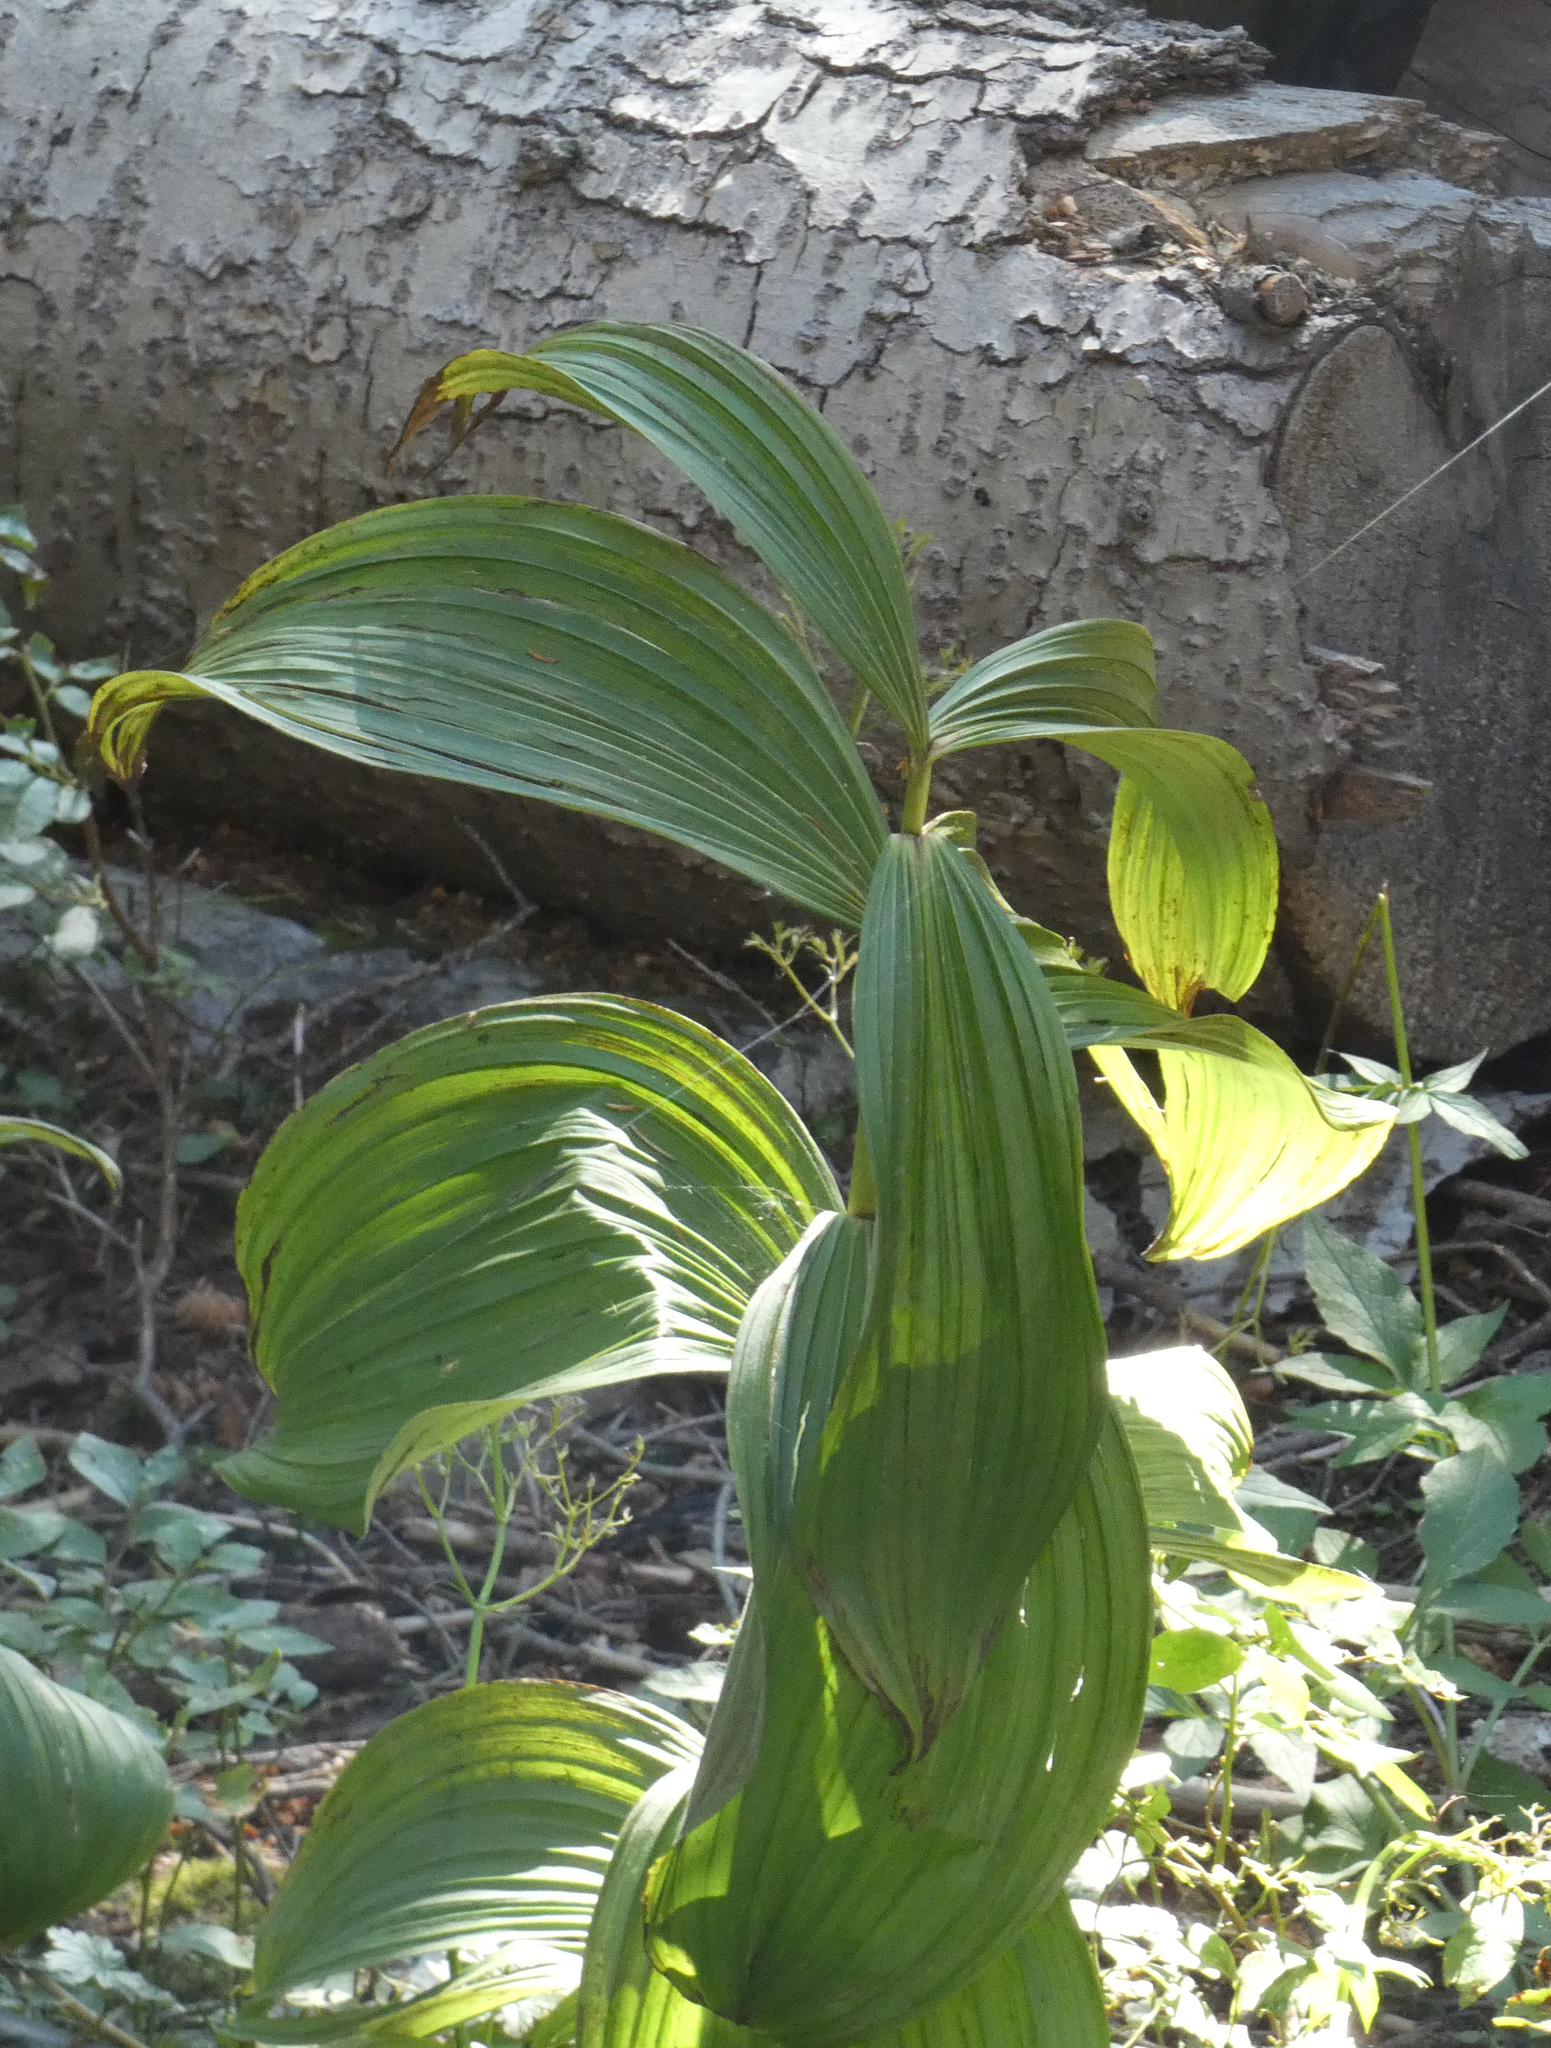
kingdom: Plantae
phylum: Tracheophyta
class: Liliopsida
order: Liliales
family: Melanthiaceae
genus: Veratrum
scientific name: Veratrum viride
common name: American false hellebore
